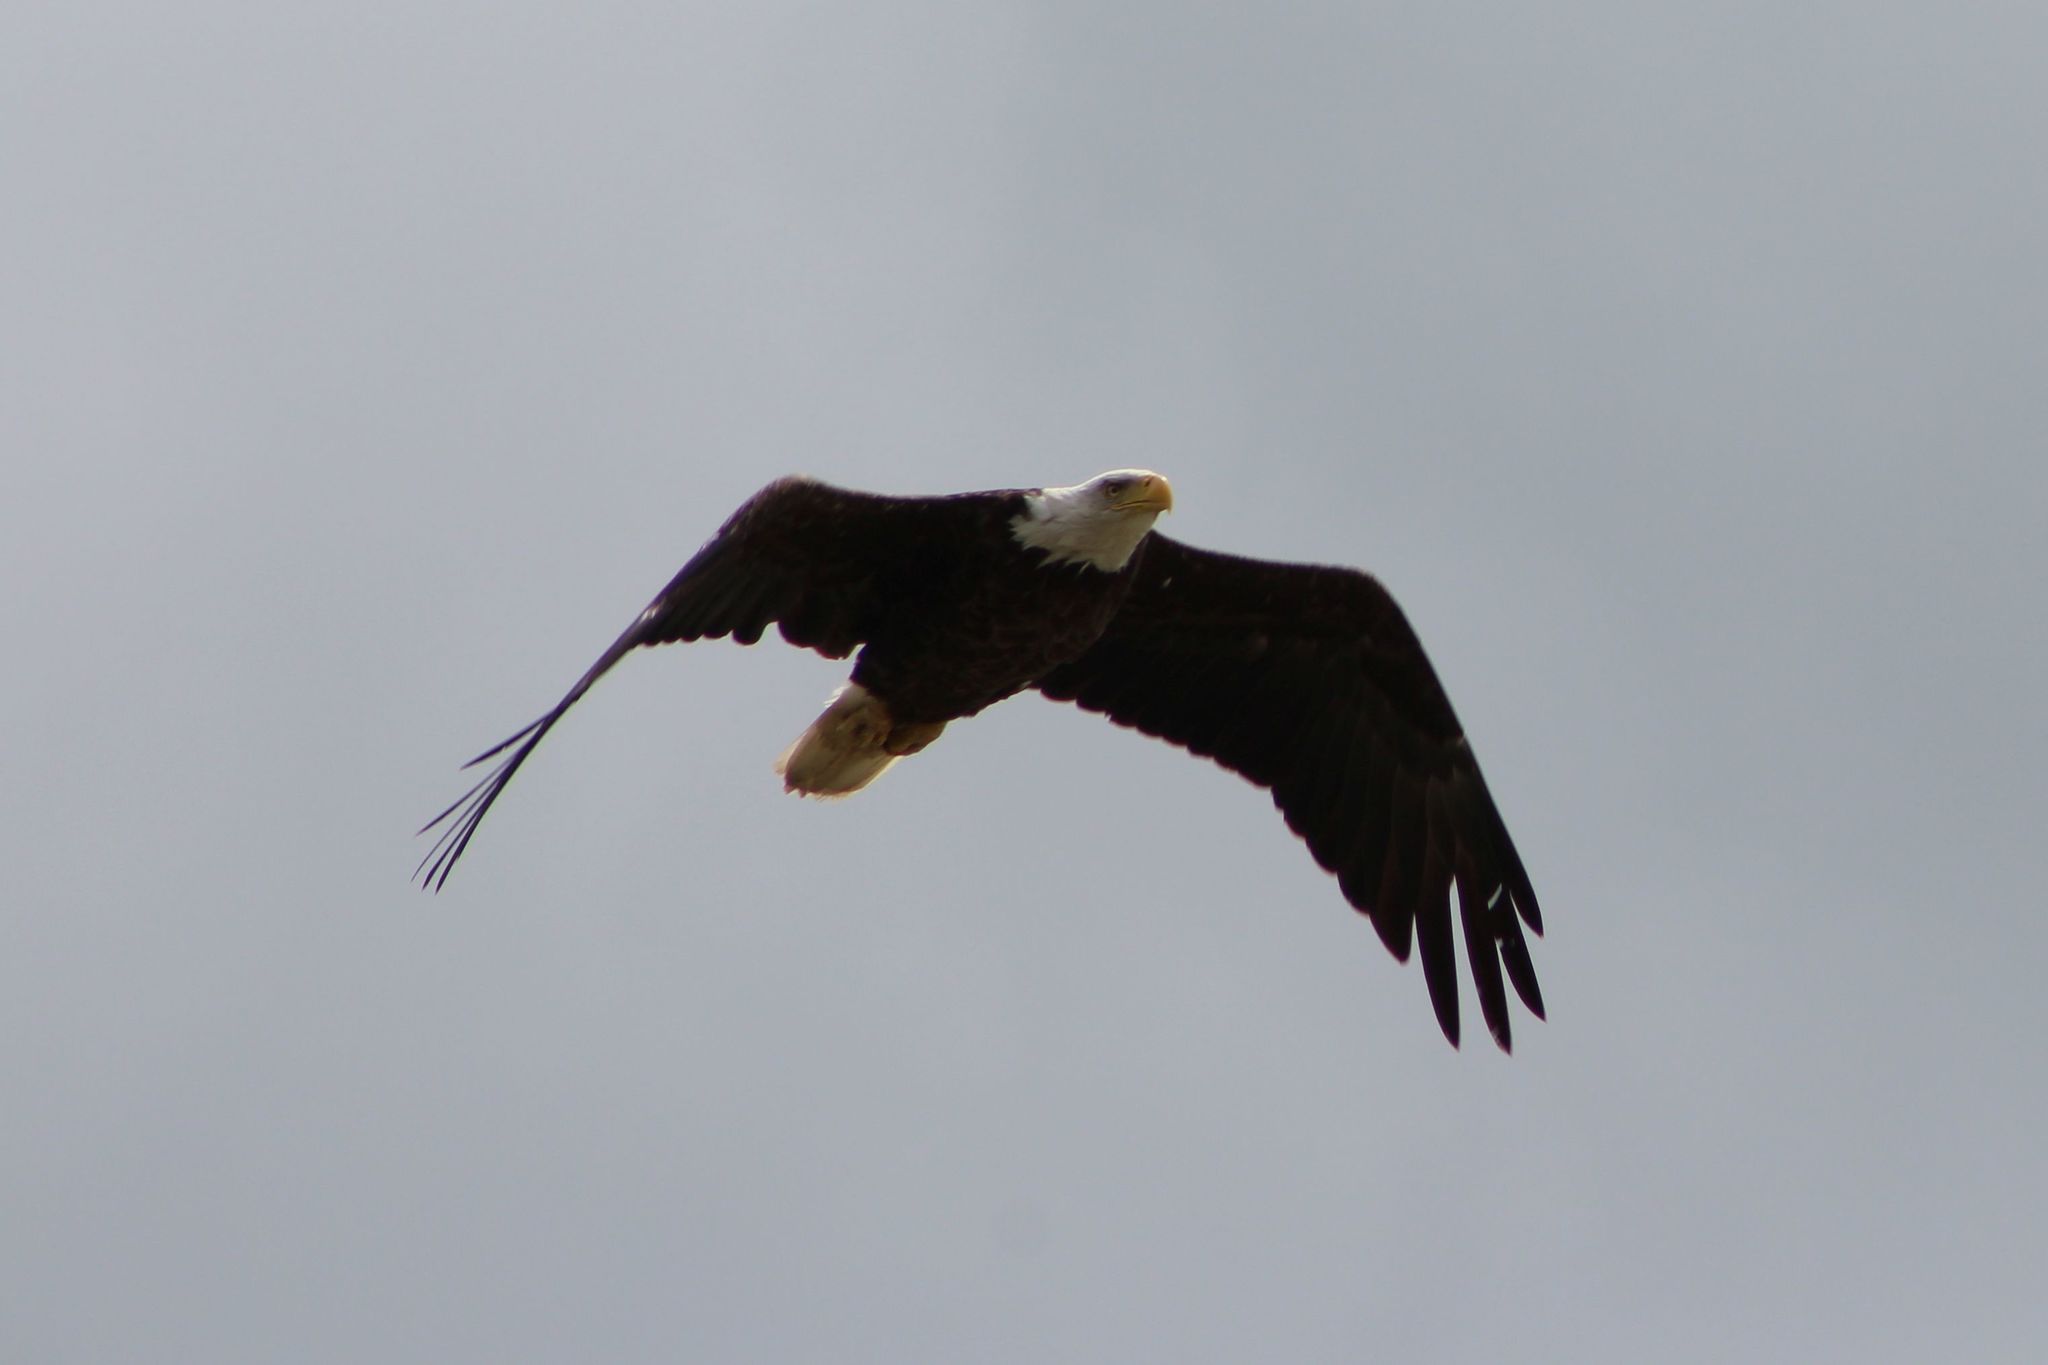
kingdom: Animalia
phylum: Chordata
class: Aves
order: Accipitriformes
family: Accipitridae
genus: Haliaeetus
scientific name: Haliaeetus leucocephalus
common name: Bald eagle
